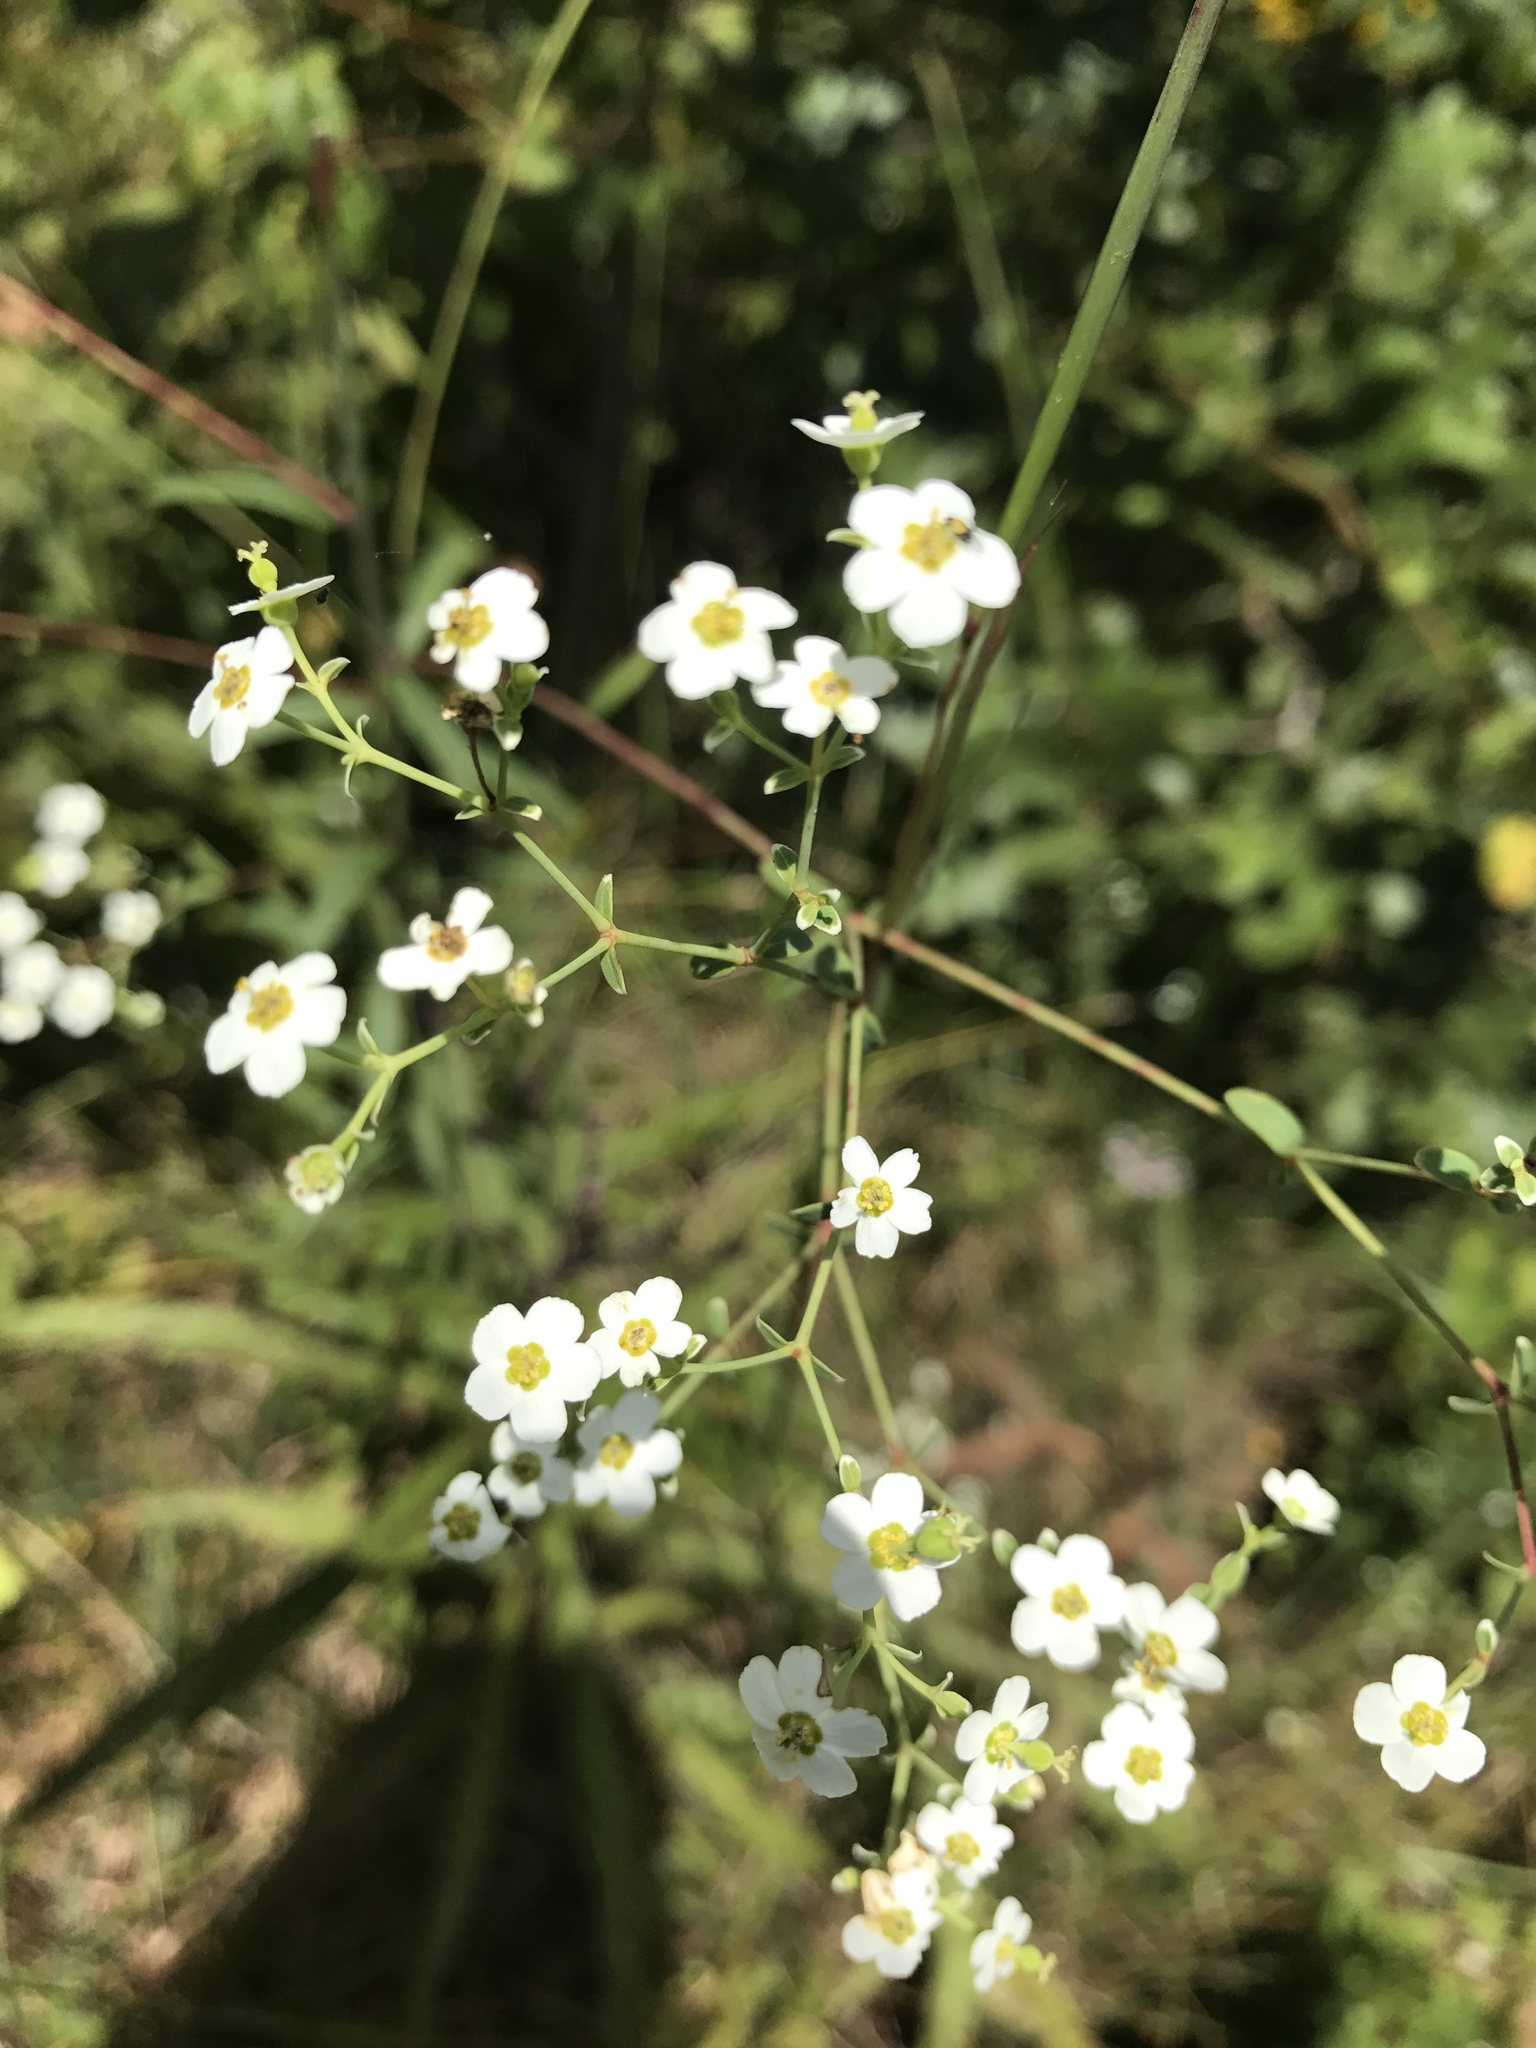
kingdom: Plantae
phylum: Tracheophyta
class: Magnoliopsida
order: Malpighiales
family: Euphorbiaceae
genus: Euphorbia
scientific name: Euphorbia corollata
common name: Flowering spurge
